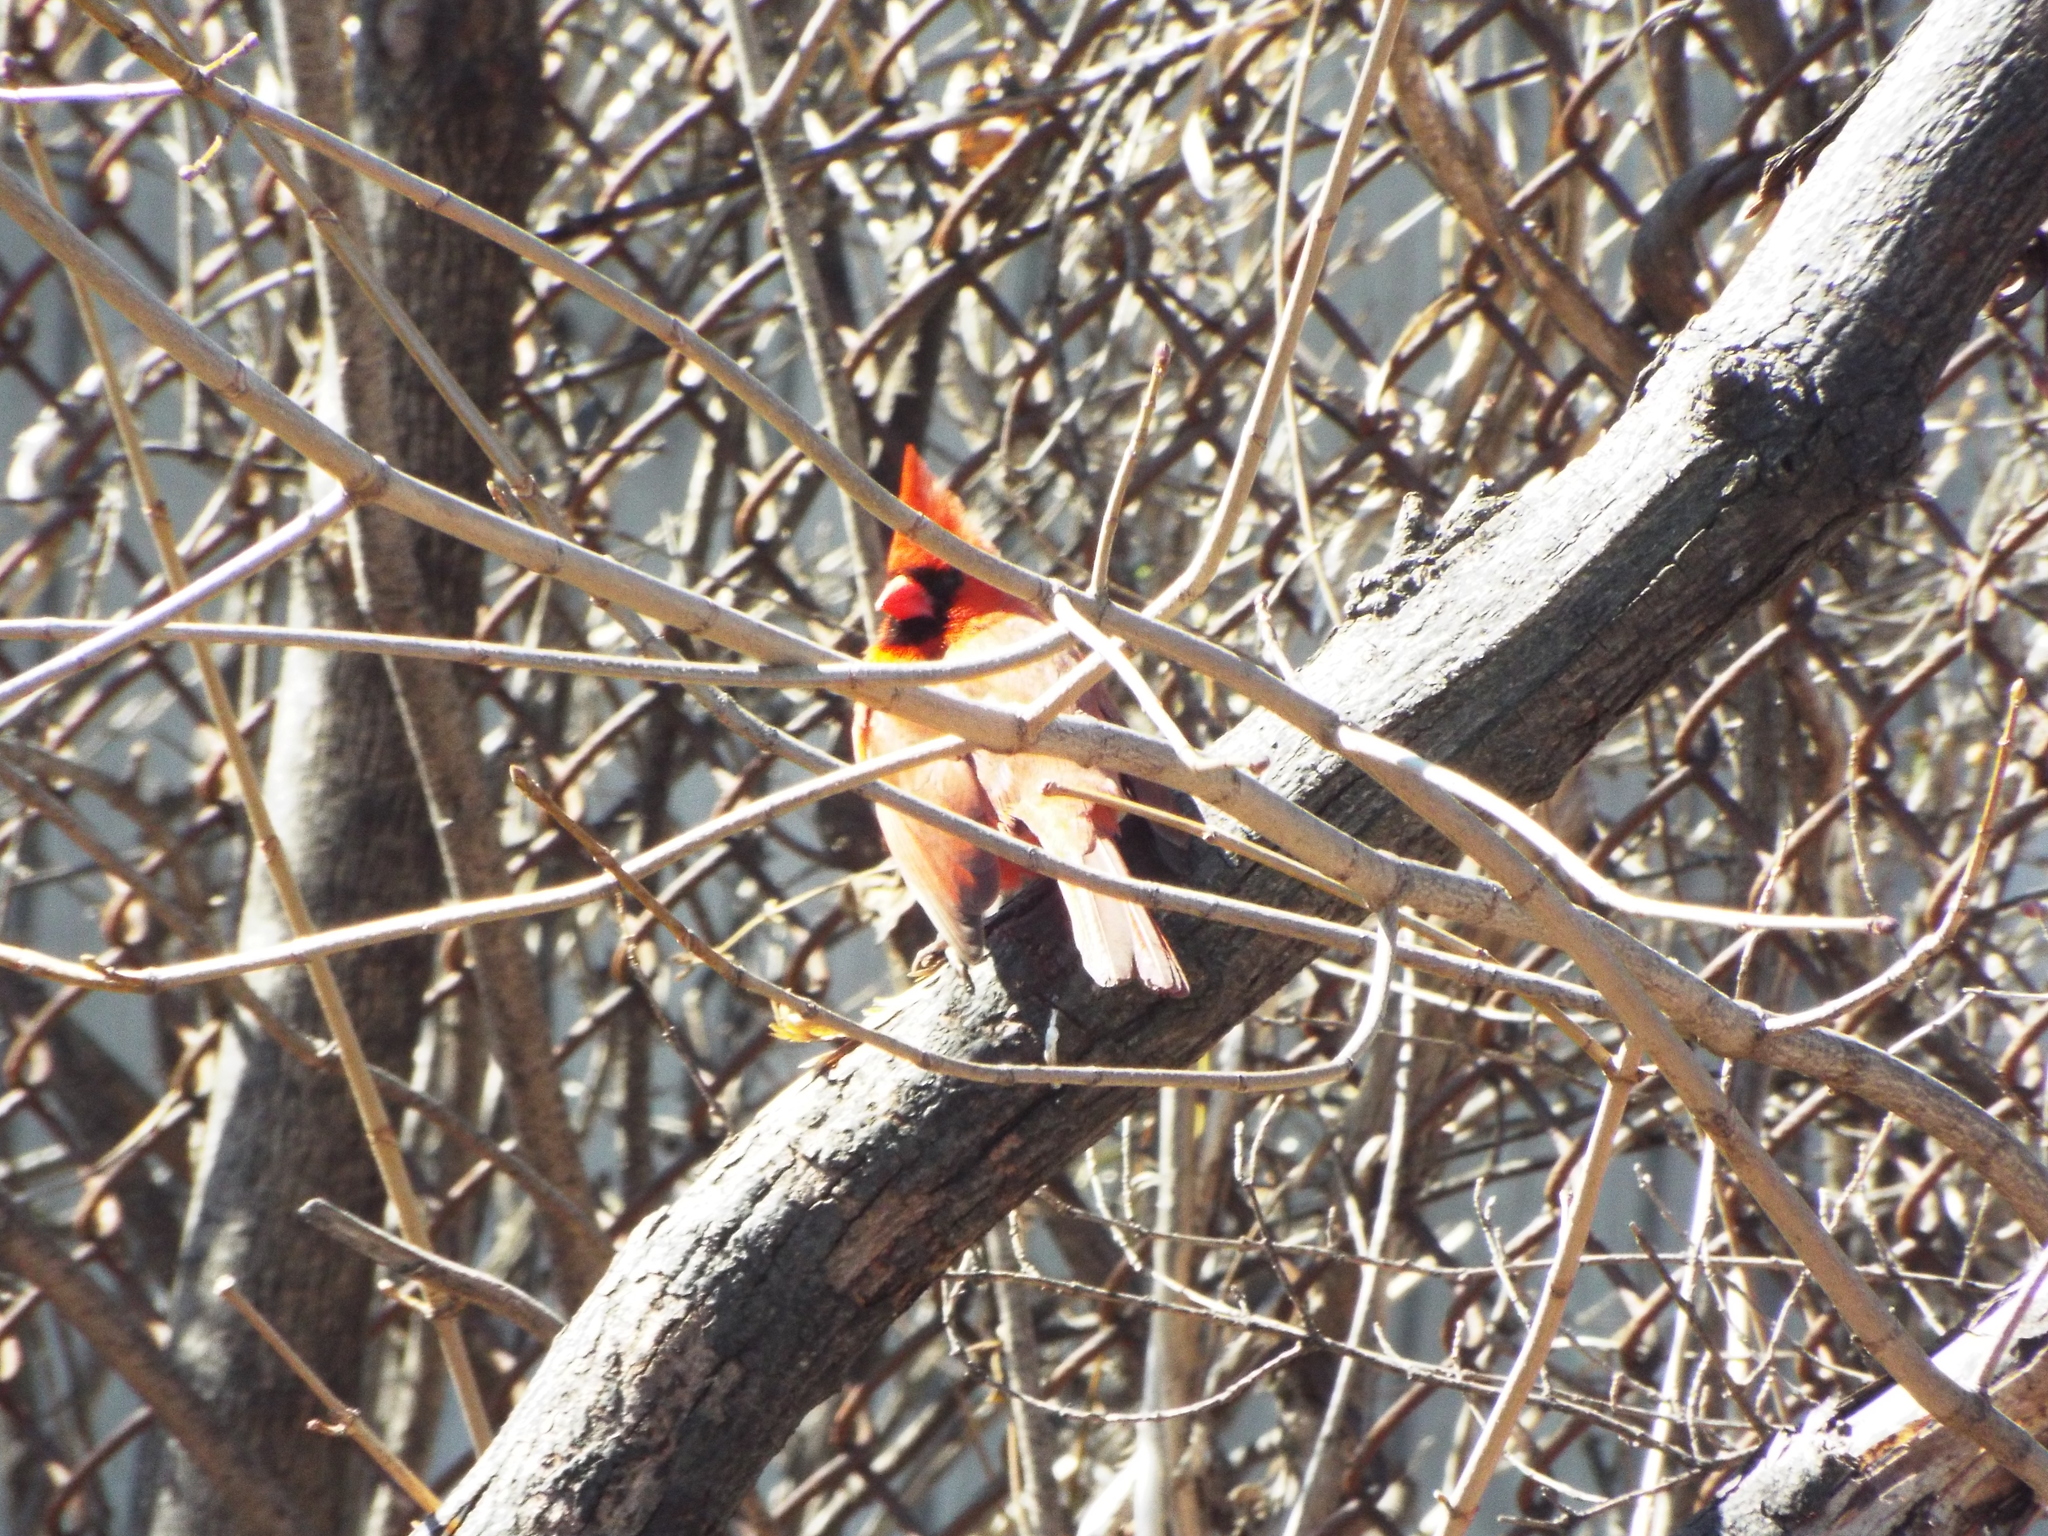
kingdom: Animalia
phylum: Chordata
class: Aves
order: Passeriformes
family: Cardinalidae
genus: Cardinalis
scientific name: Cardinalis cardinalis
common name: Northern cardinal
